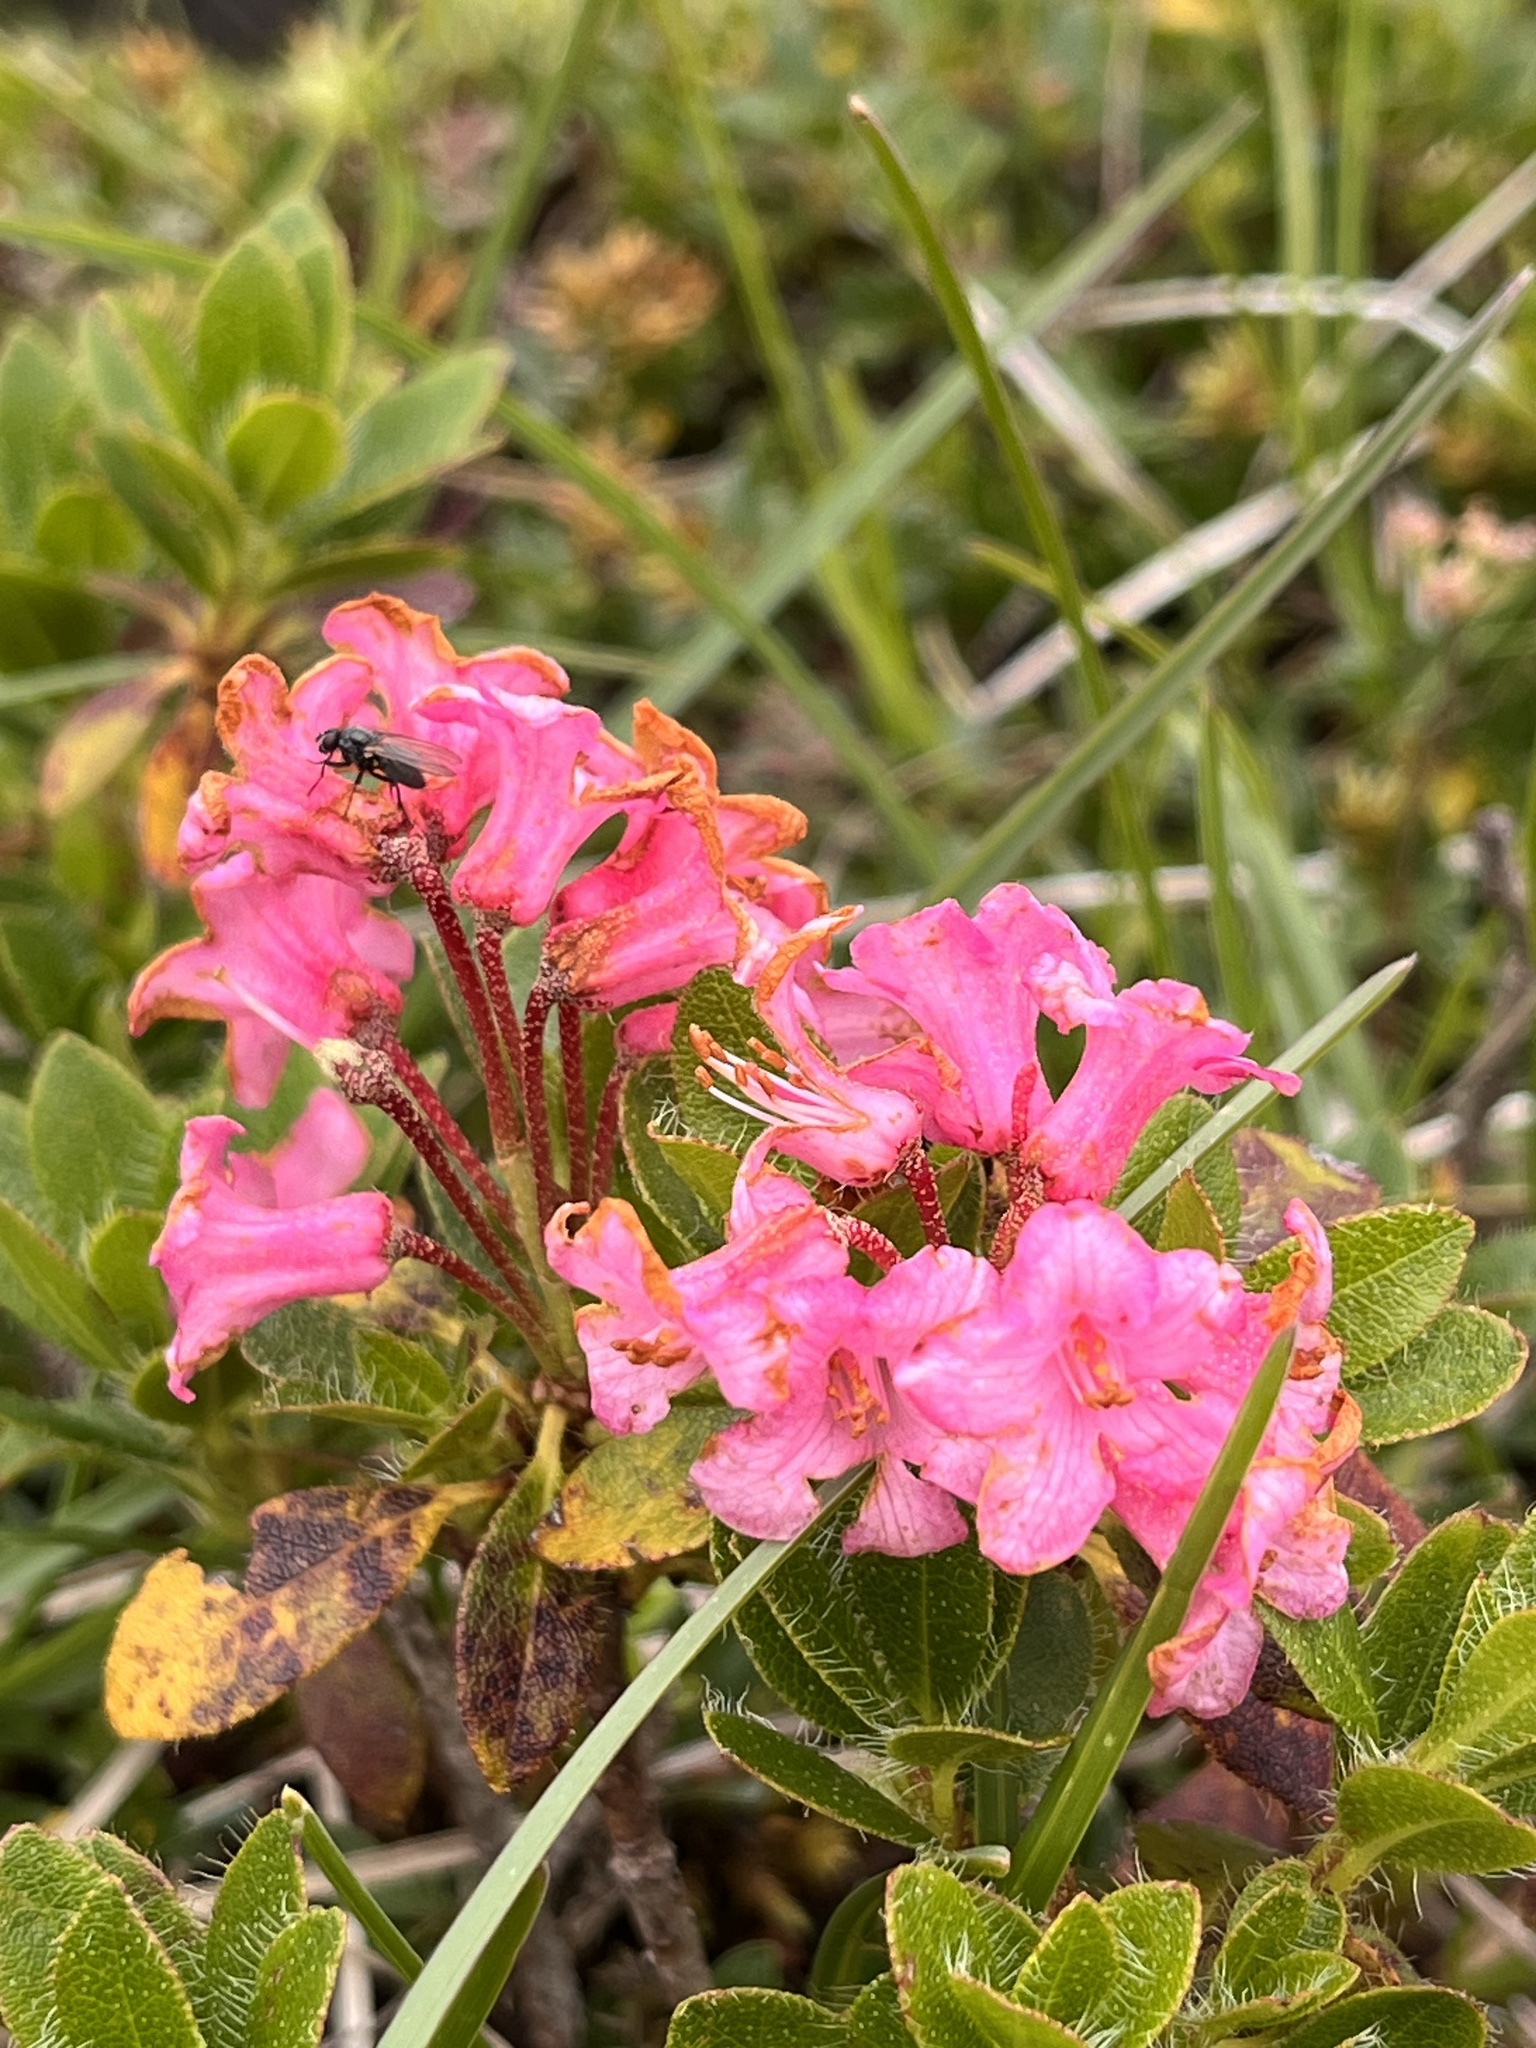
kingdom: Plantae
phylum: Tracheophyta
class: Magnoliopsida
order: Ericales
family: Ericaceae
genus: Rhododendron
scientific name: Rhododendron hirsutum
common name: Hairy alpenrose
